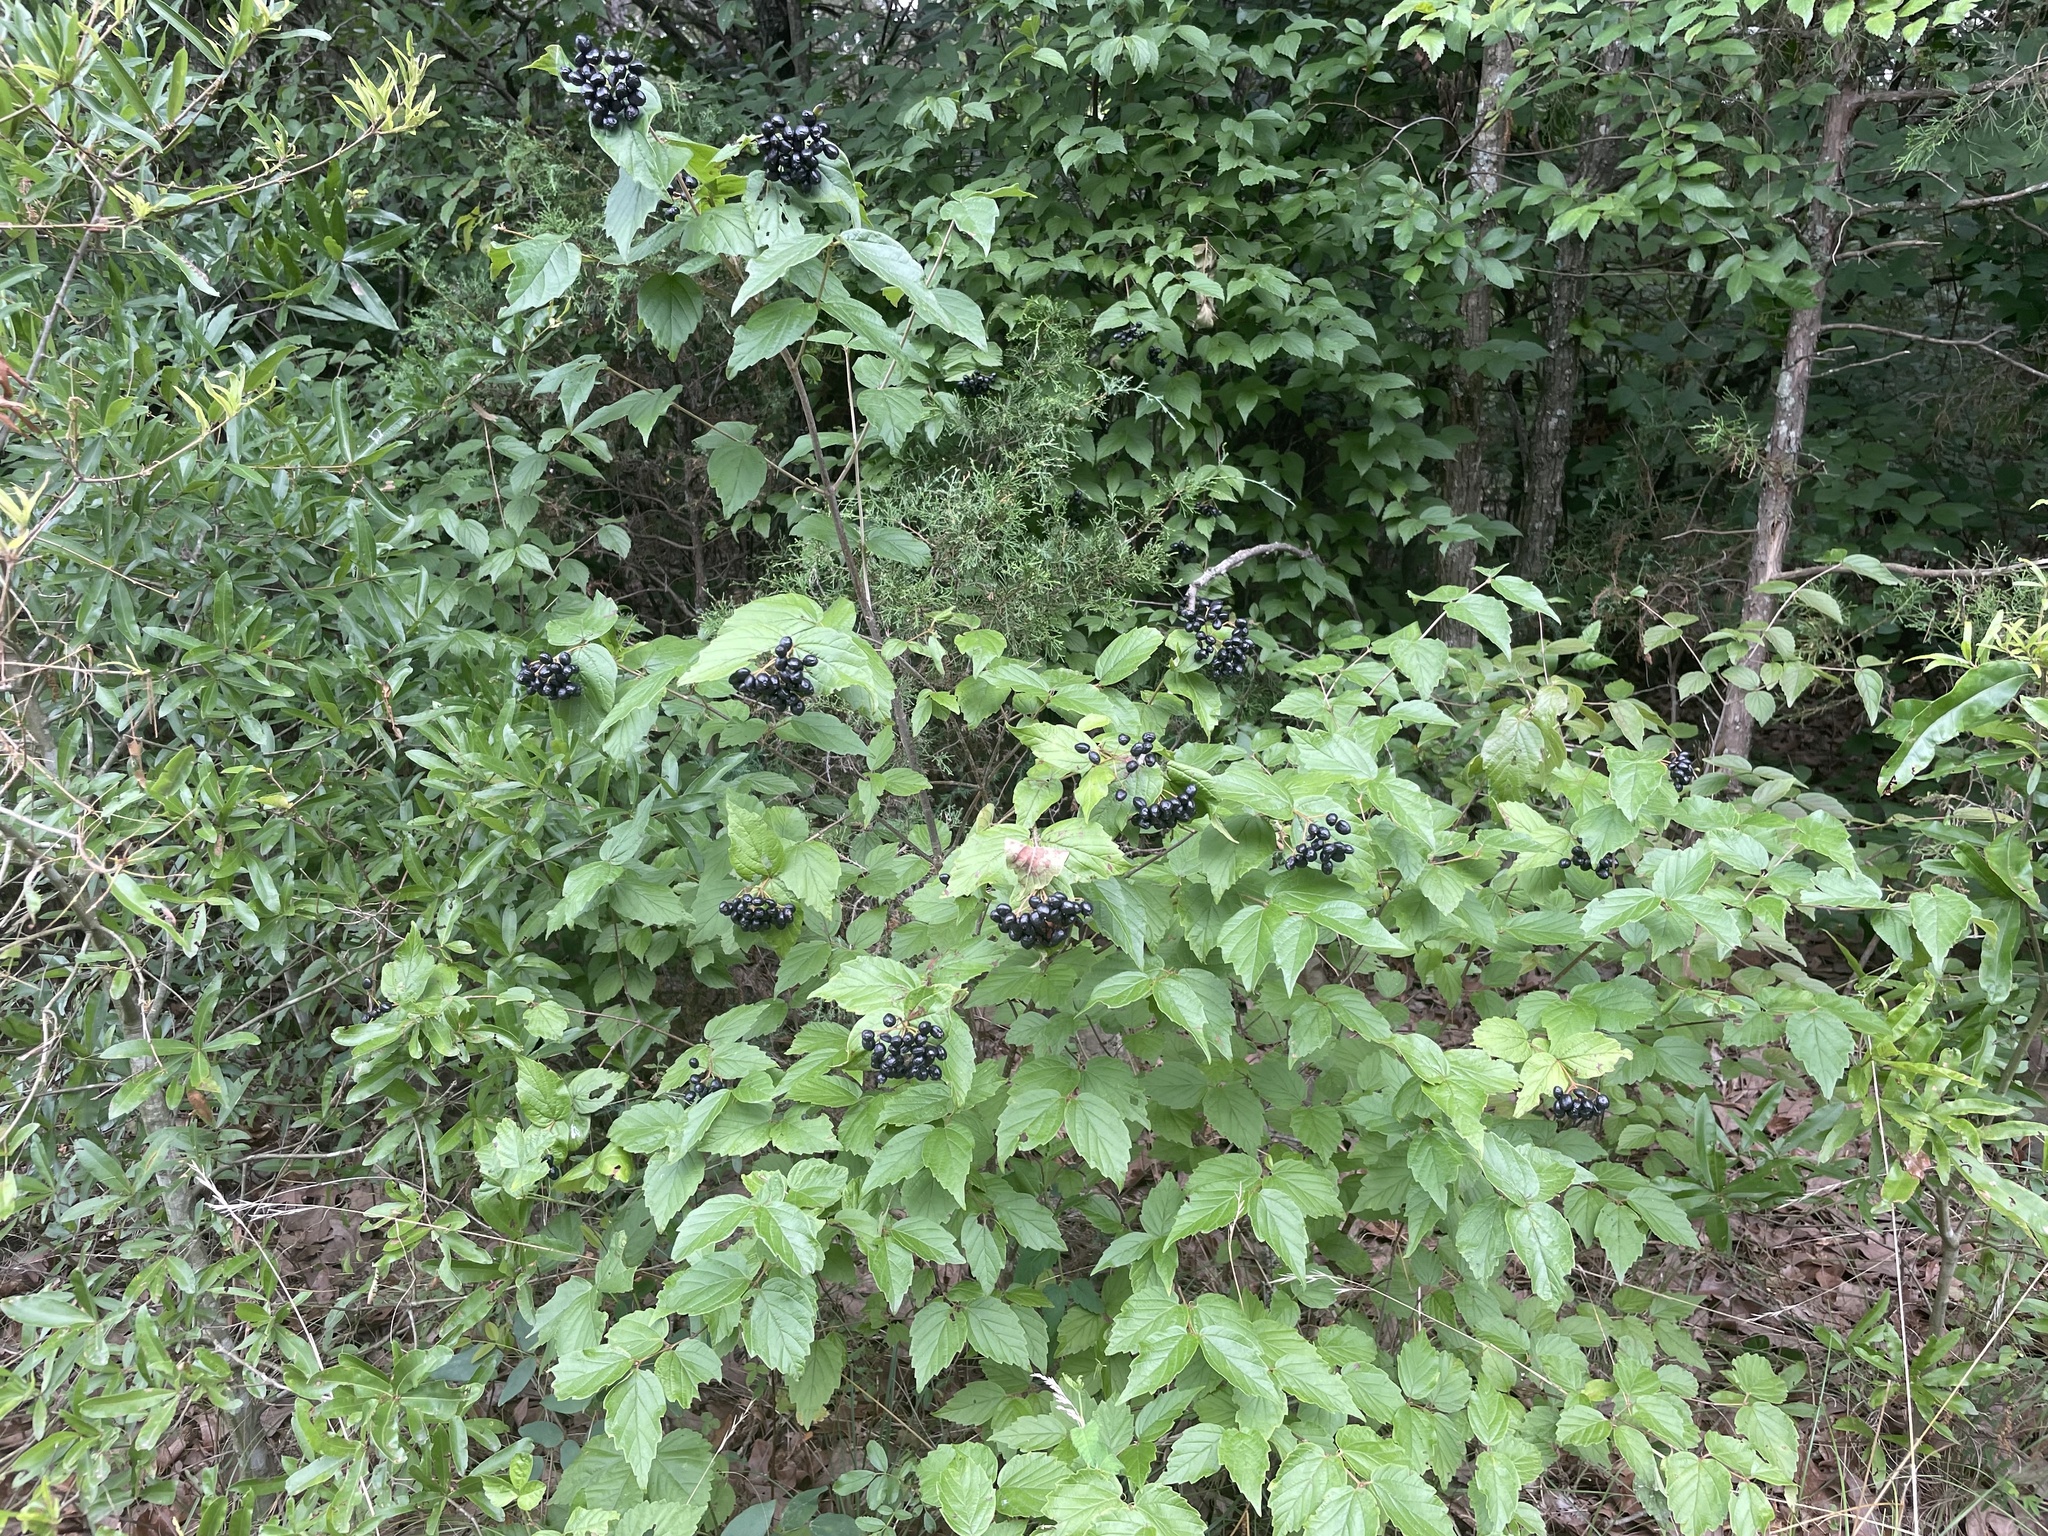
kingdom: Plantae
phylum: Tracheophyta
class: Magnoliopsida
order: Dipsacales
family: Viburnaceae
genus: Viburnum
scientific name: Viburnum rafinesqueanum
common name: Downy arrow-wood
